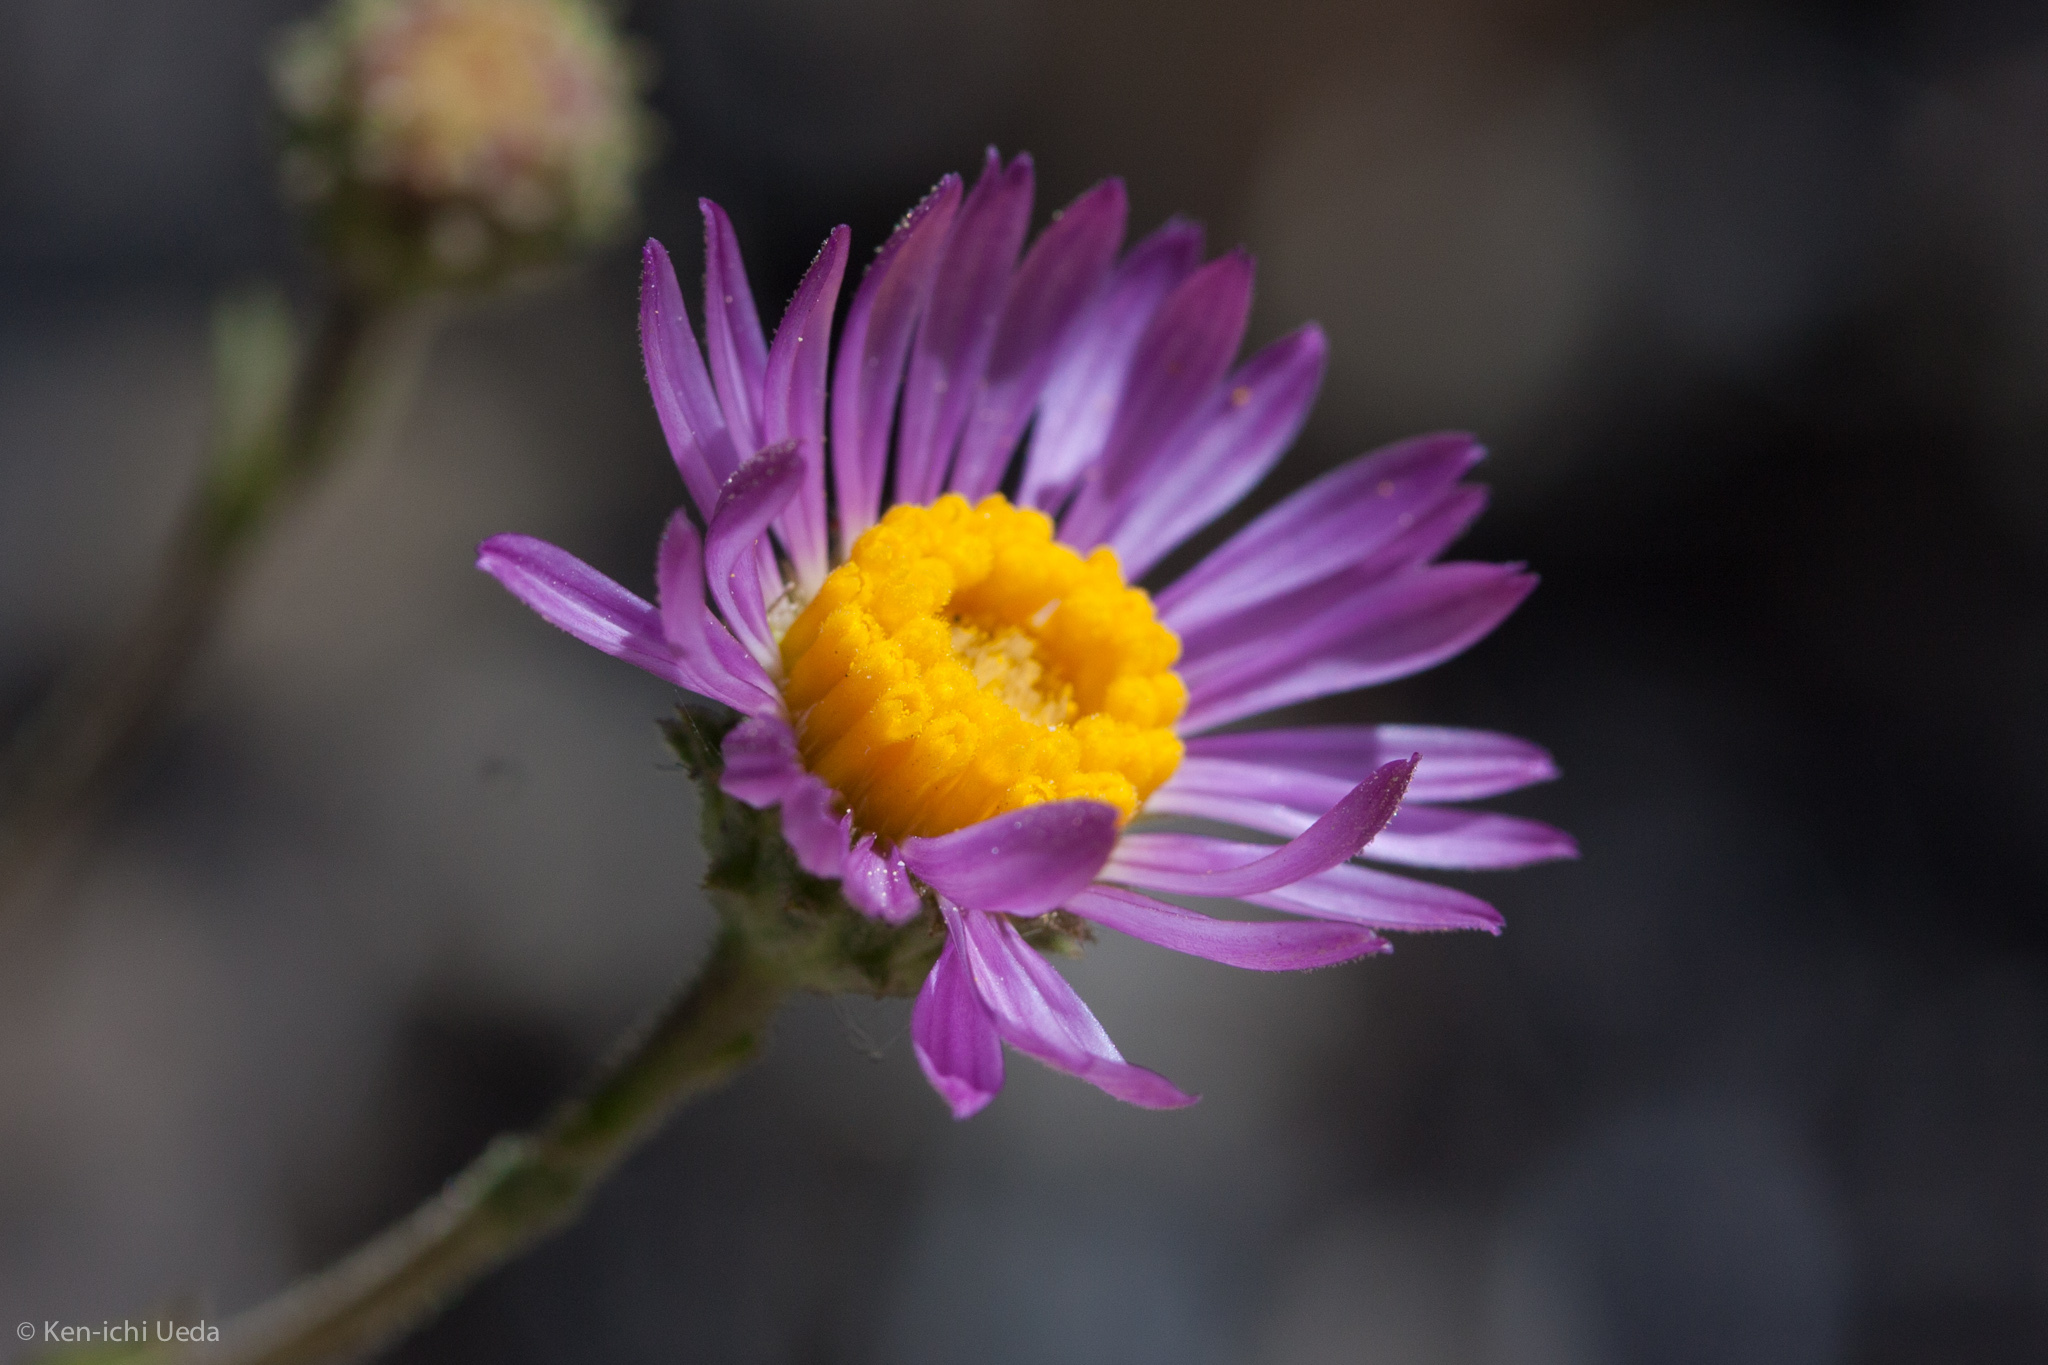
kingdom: Plantae
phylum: Tracheophyta
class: Magnoliopsida
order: Asterales
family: Asteraceae
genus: Corethrogyne
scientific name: Corethrogyne filaginifolia
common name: Sand-aster
